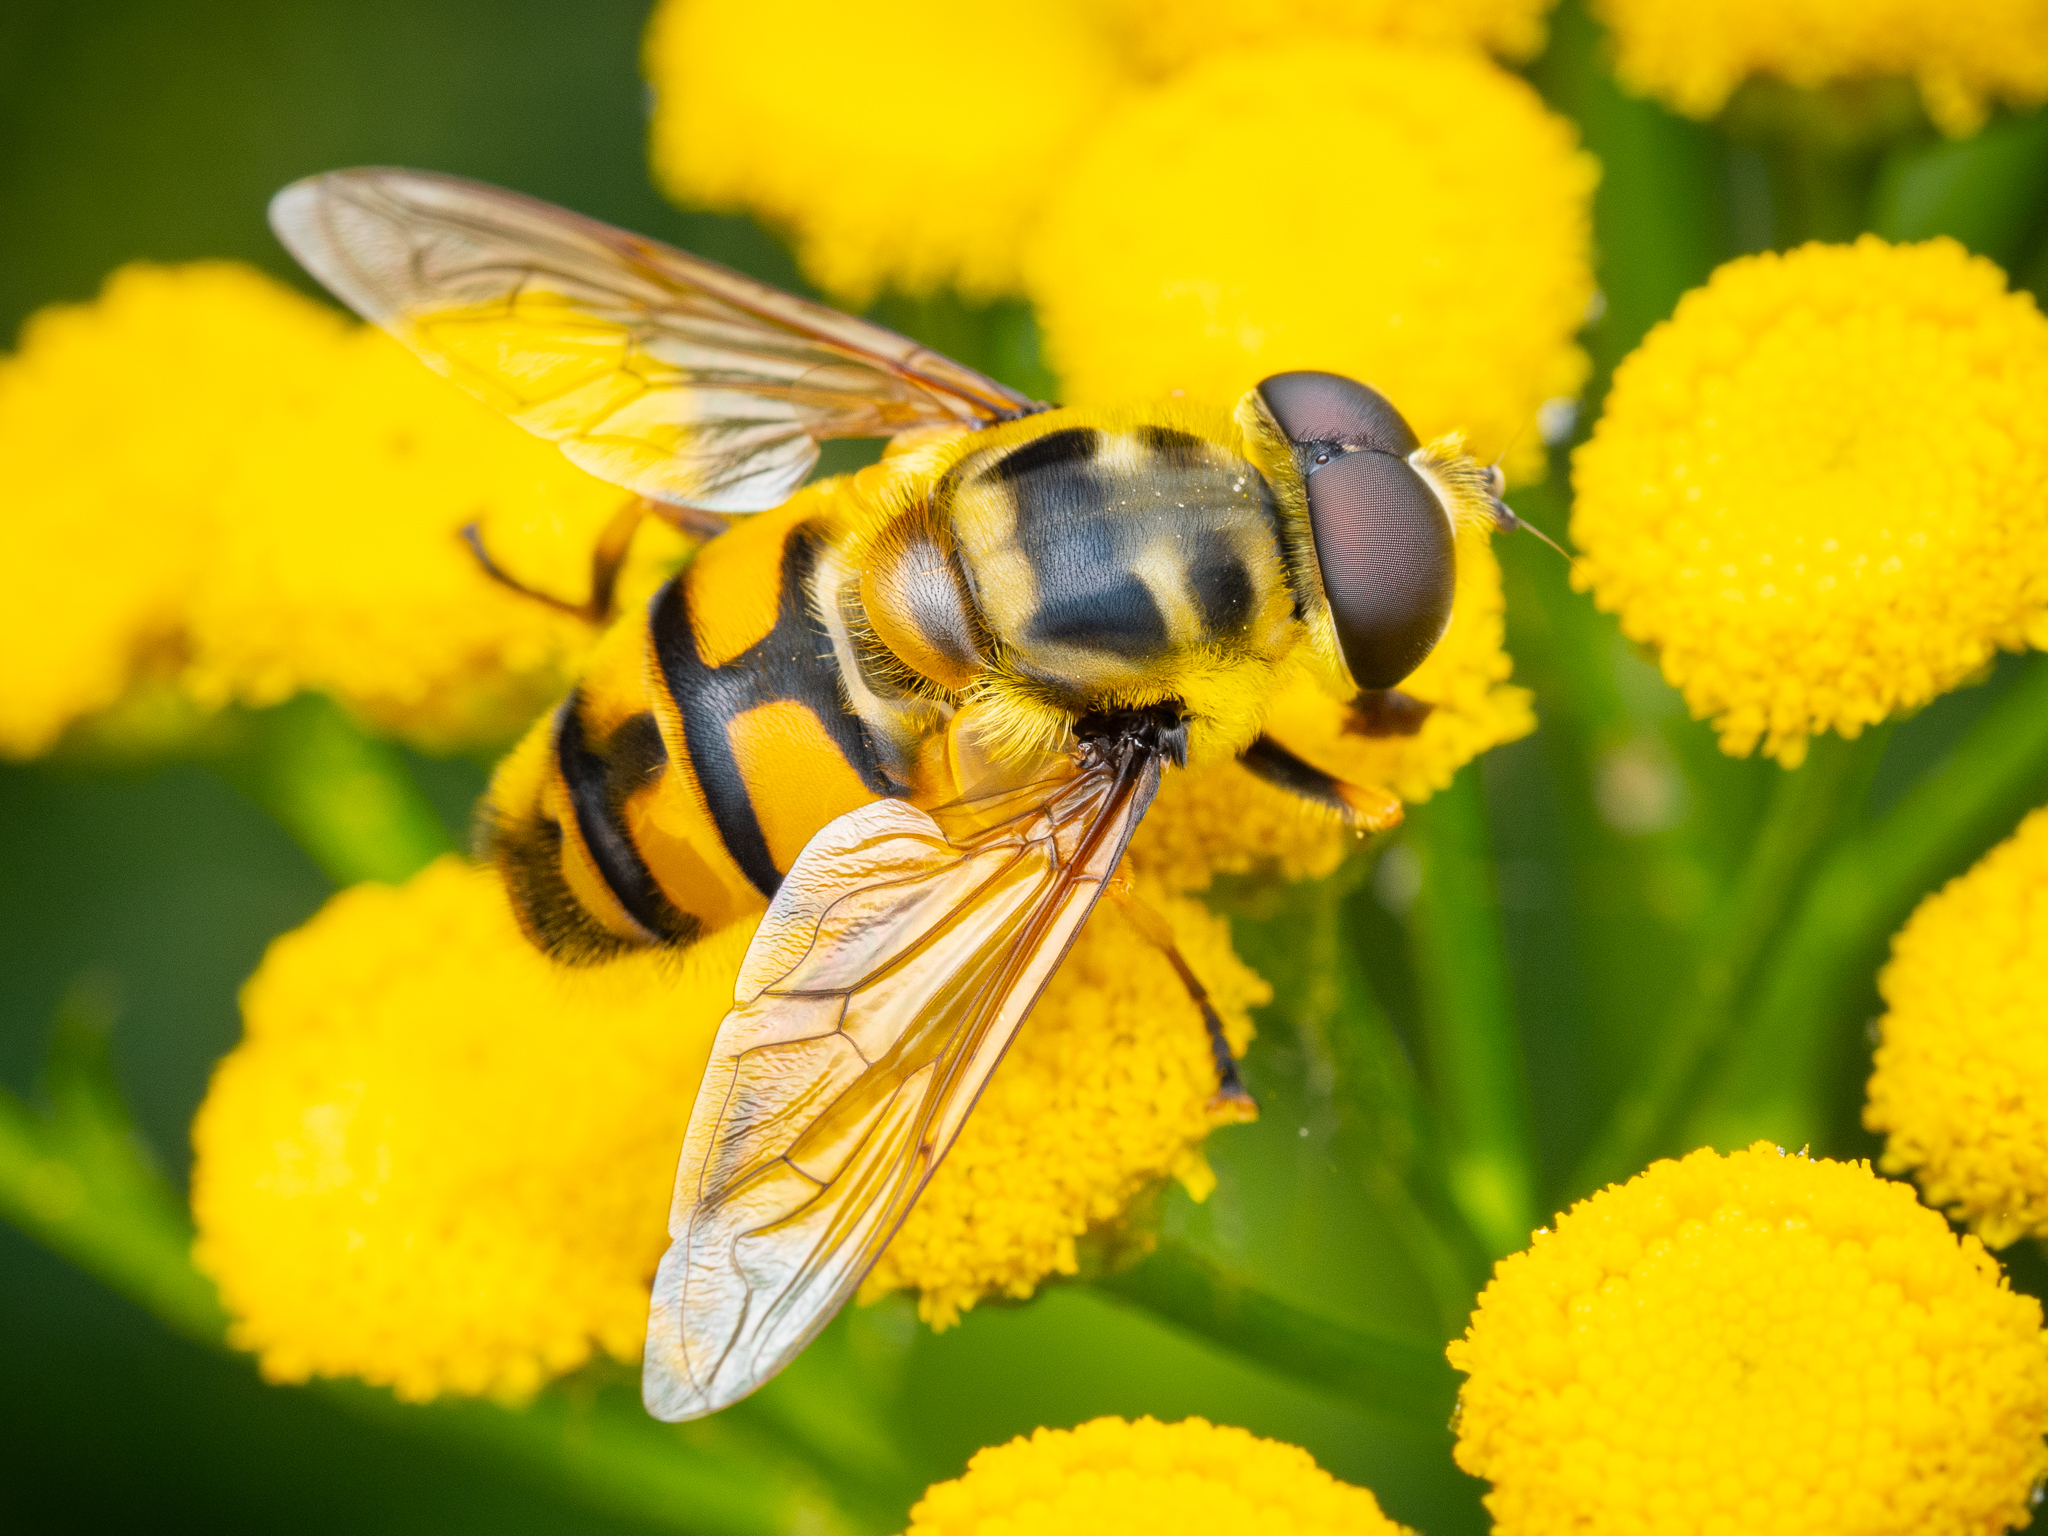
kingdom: Animalia
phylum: Arthropoda
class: Insecta
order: Diptera
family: Syrphidae
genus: Myathropa
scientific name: Myathropa florea
